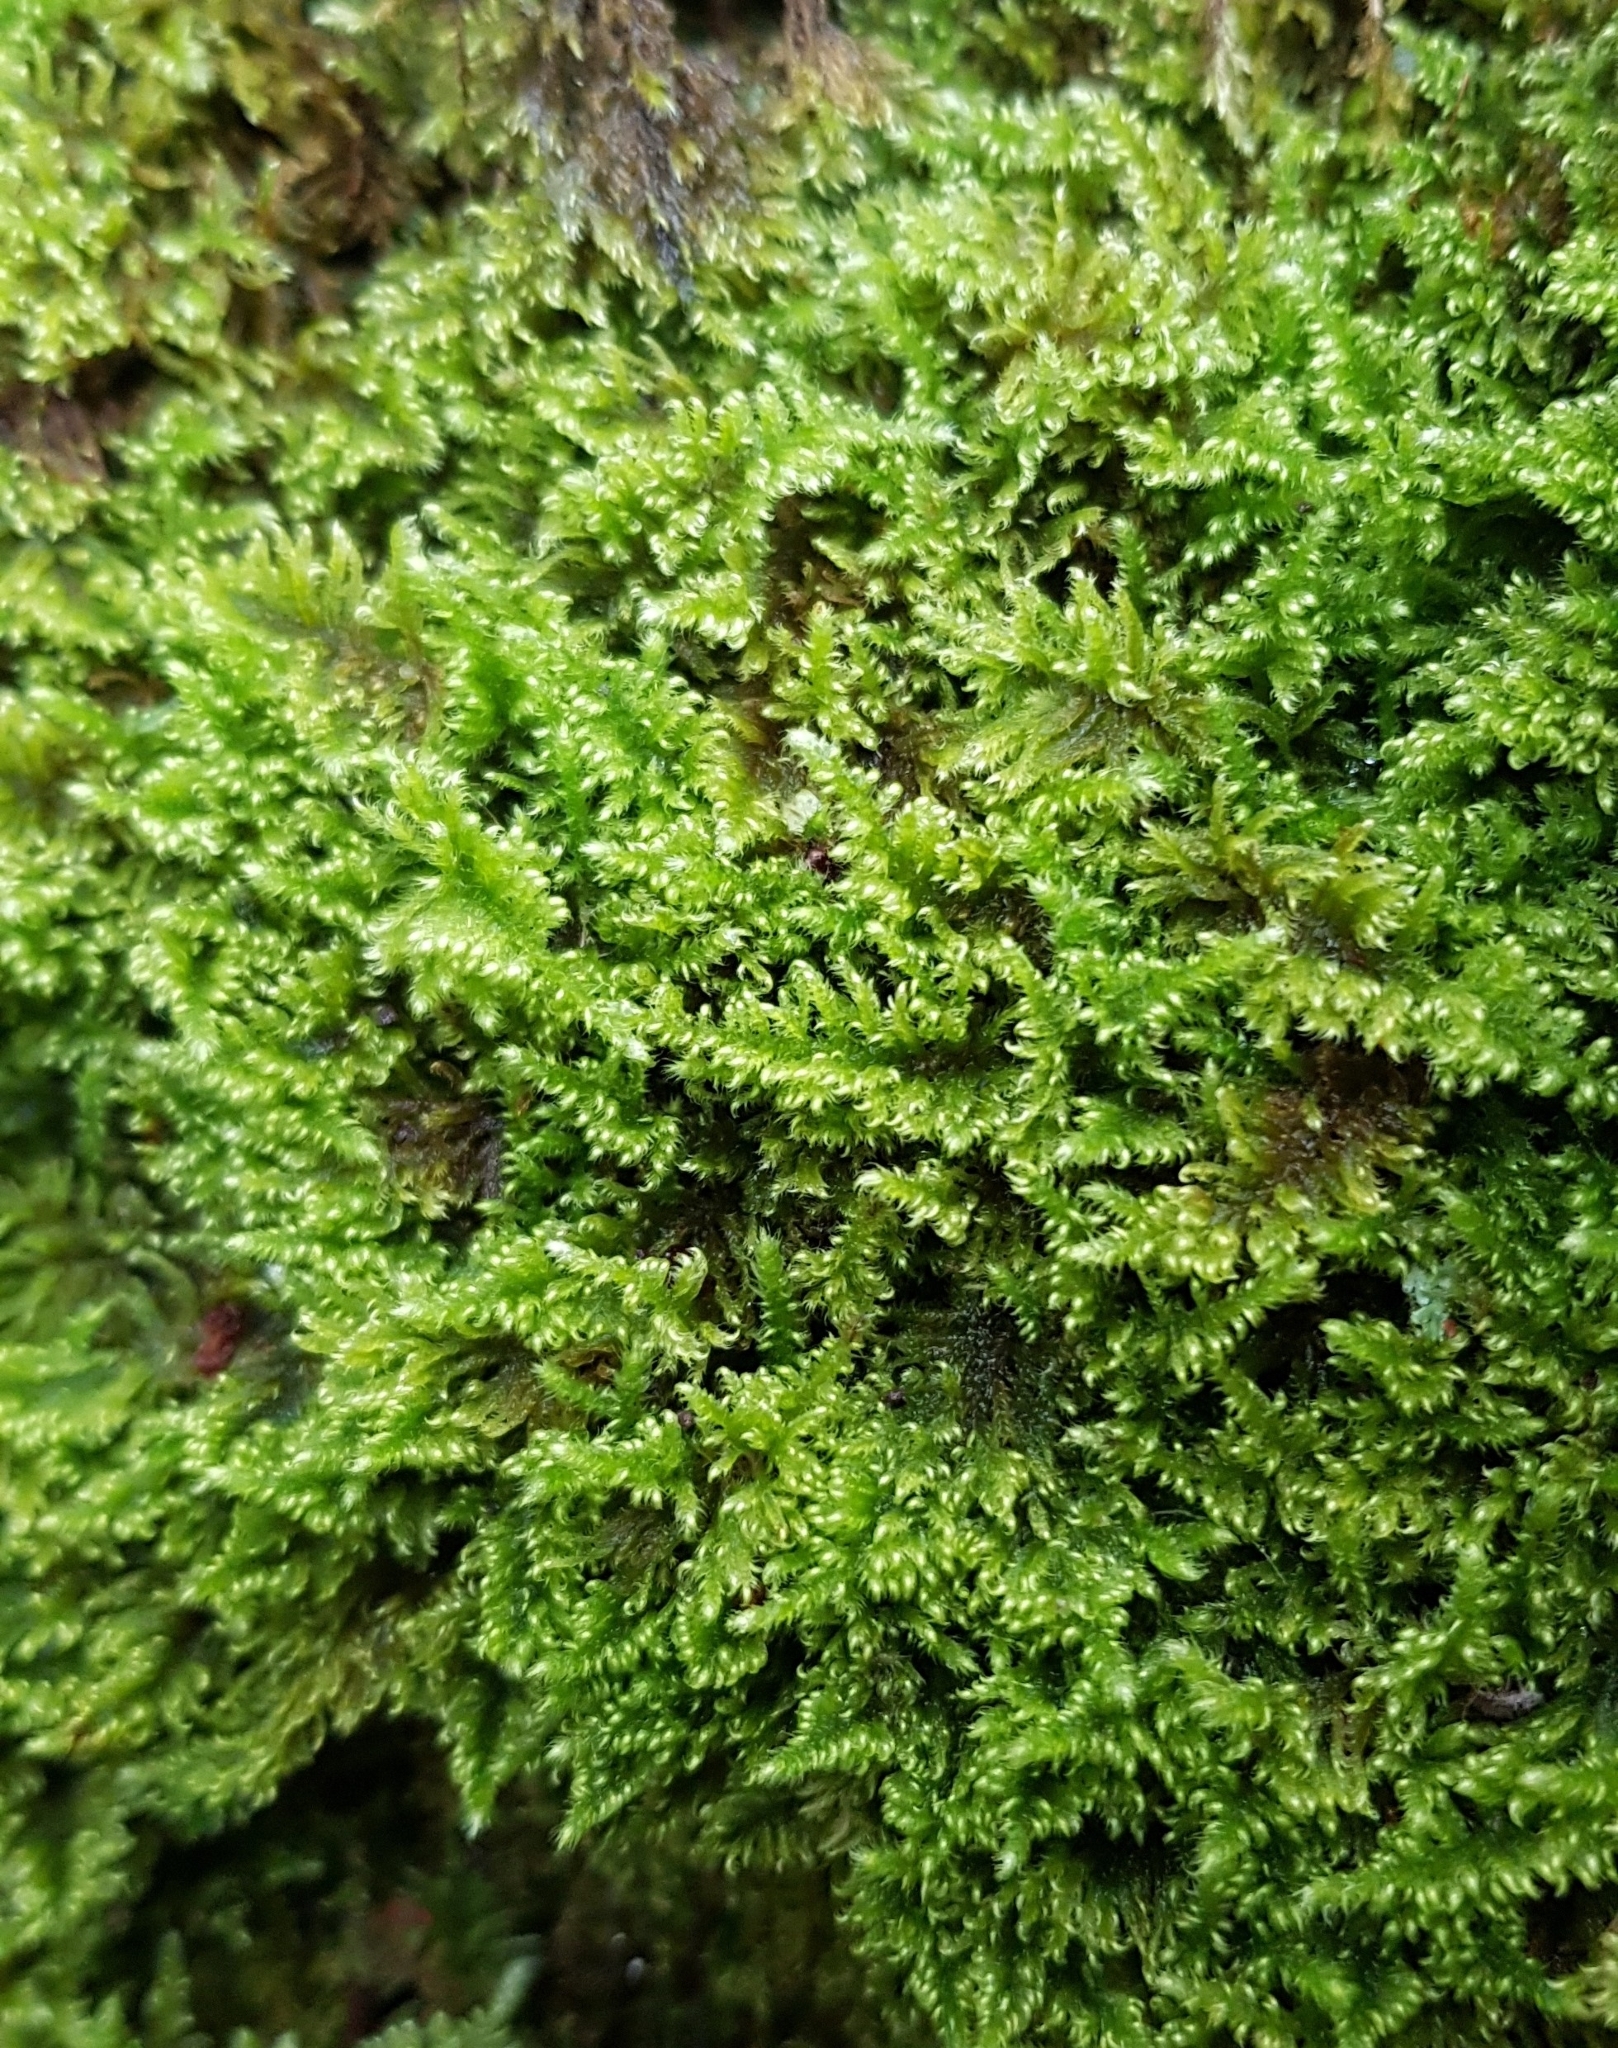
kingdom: Plantae
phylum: Bryophyta
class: Bryopsida
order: Hypnales
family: Myuriaceae
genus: Ctenidium
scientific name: Ctenidium molluscum
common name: Chalk comb-moss
